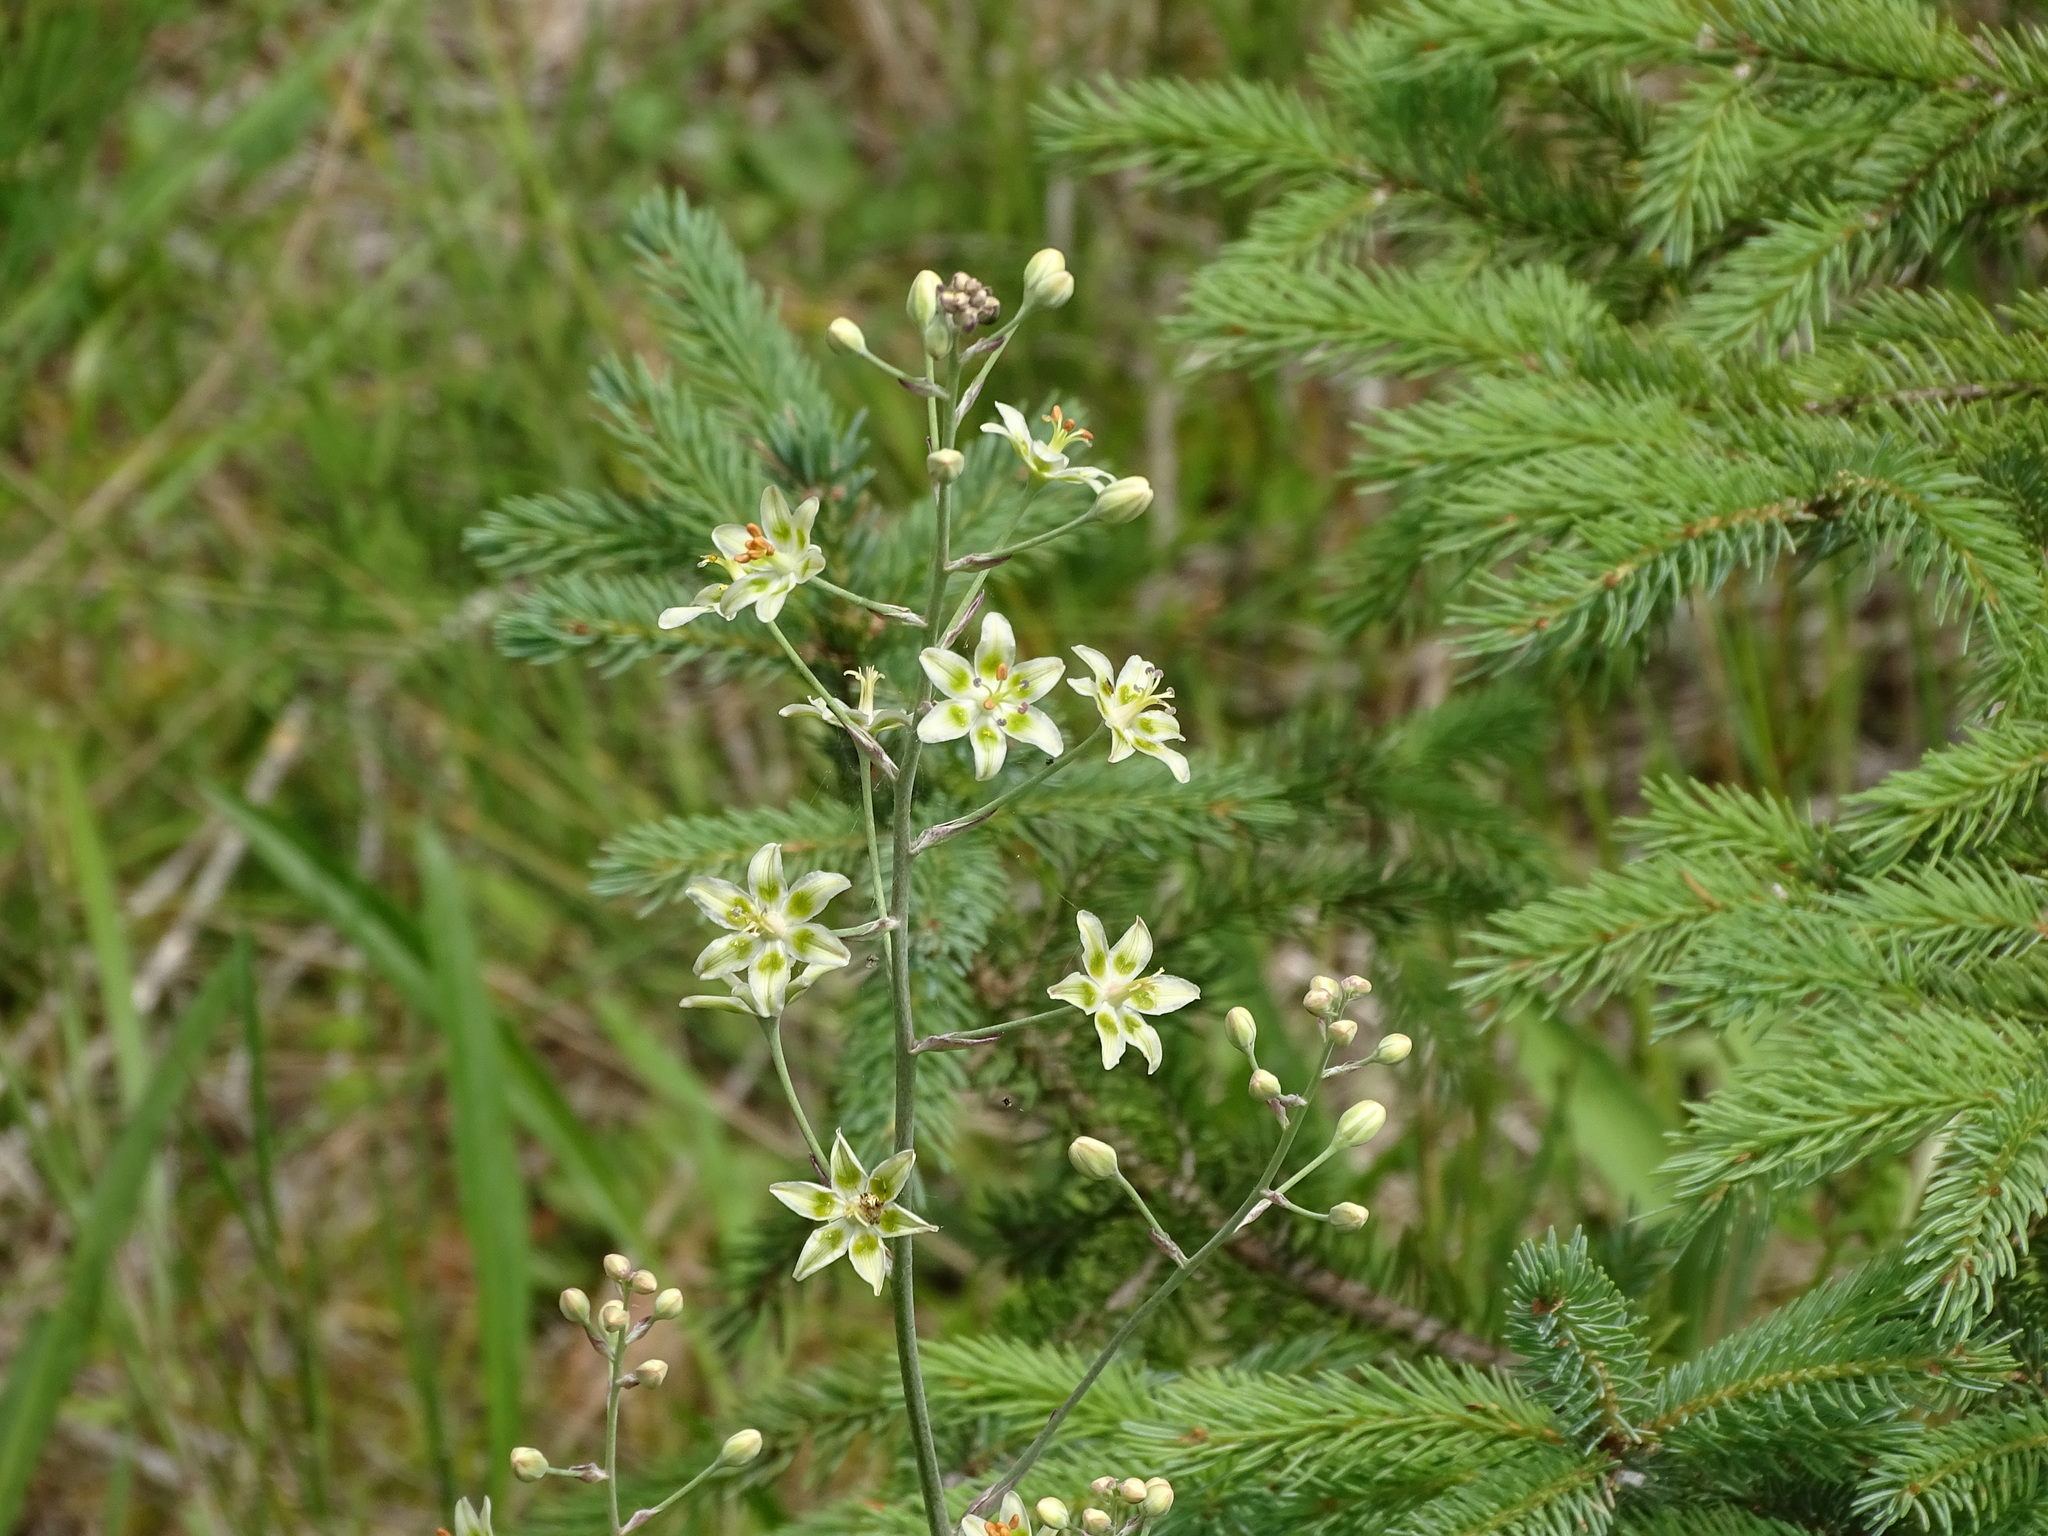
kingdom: Plantae
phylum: Tracheophyta
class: Liliopsida
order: Liliales
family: Melanthiaceae
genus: Anticlea
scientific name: Anticlea elegans
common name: Mountain death camas
